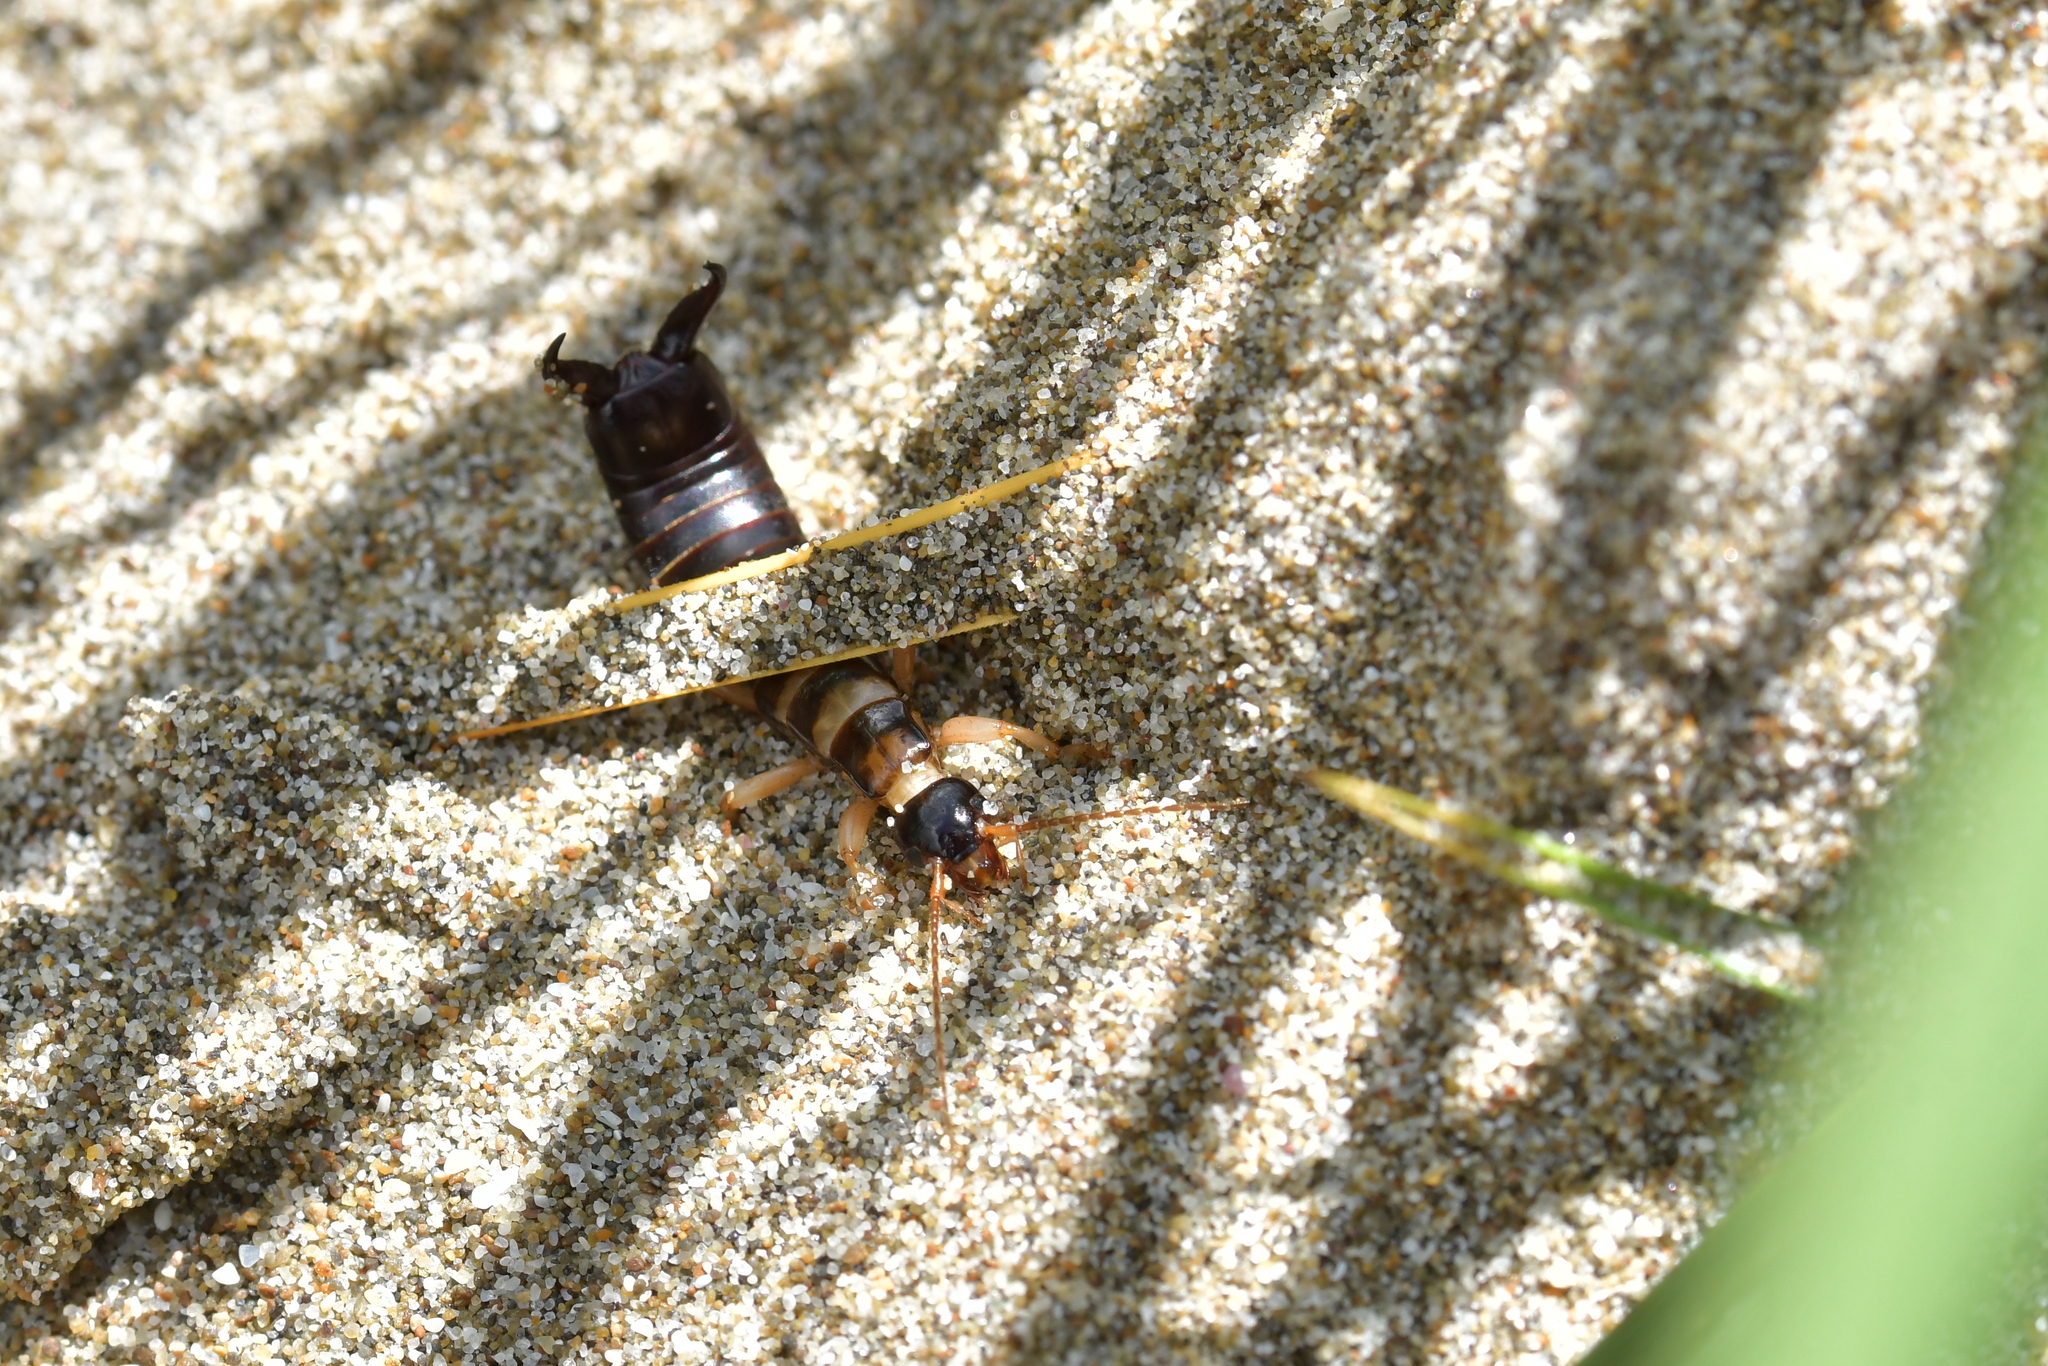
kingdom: Animalia
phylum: Arthropoda
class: Insecta
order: Dermaptera
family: Anisolabididae
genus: Anisolabis
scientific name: Anisolabis littorea
